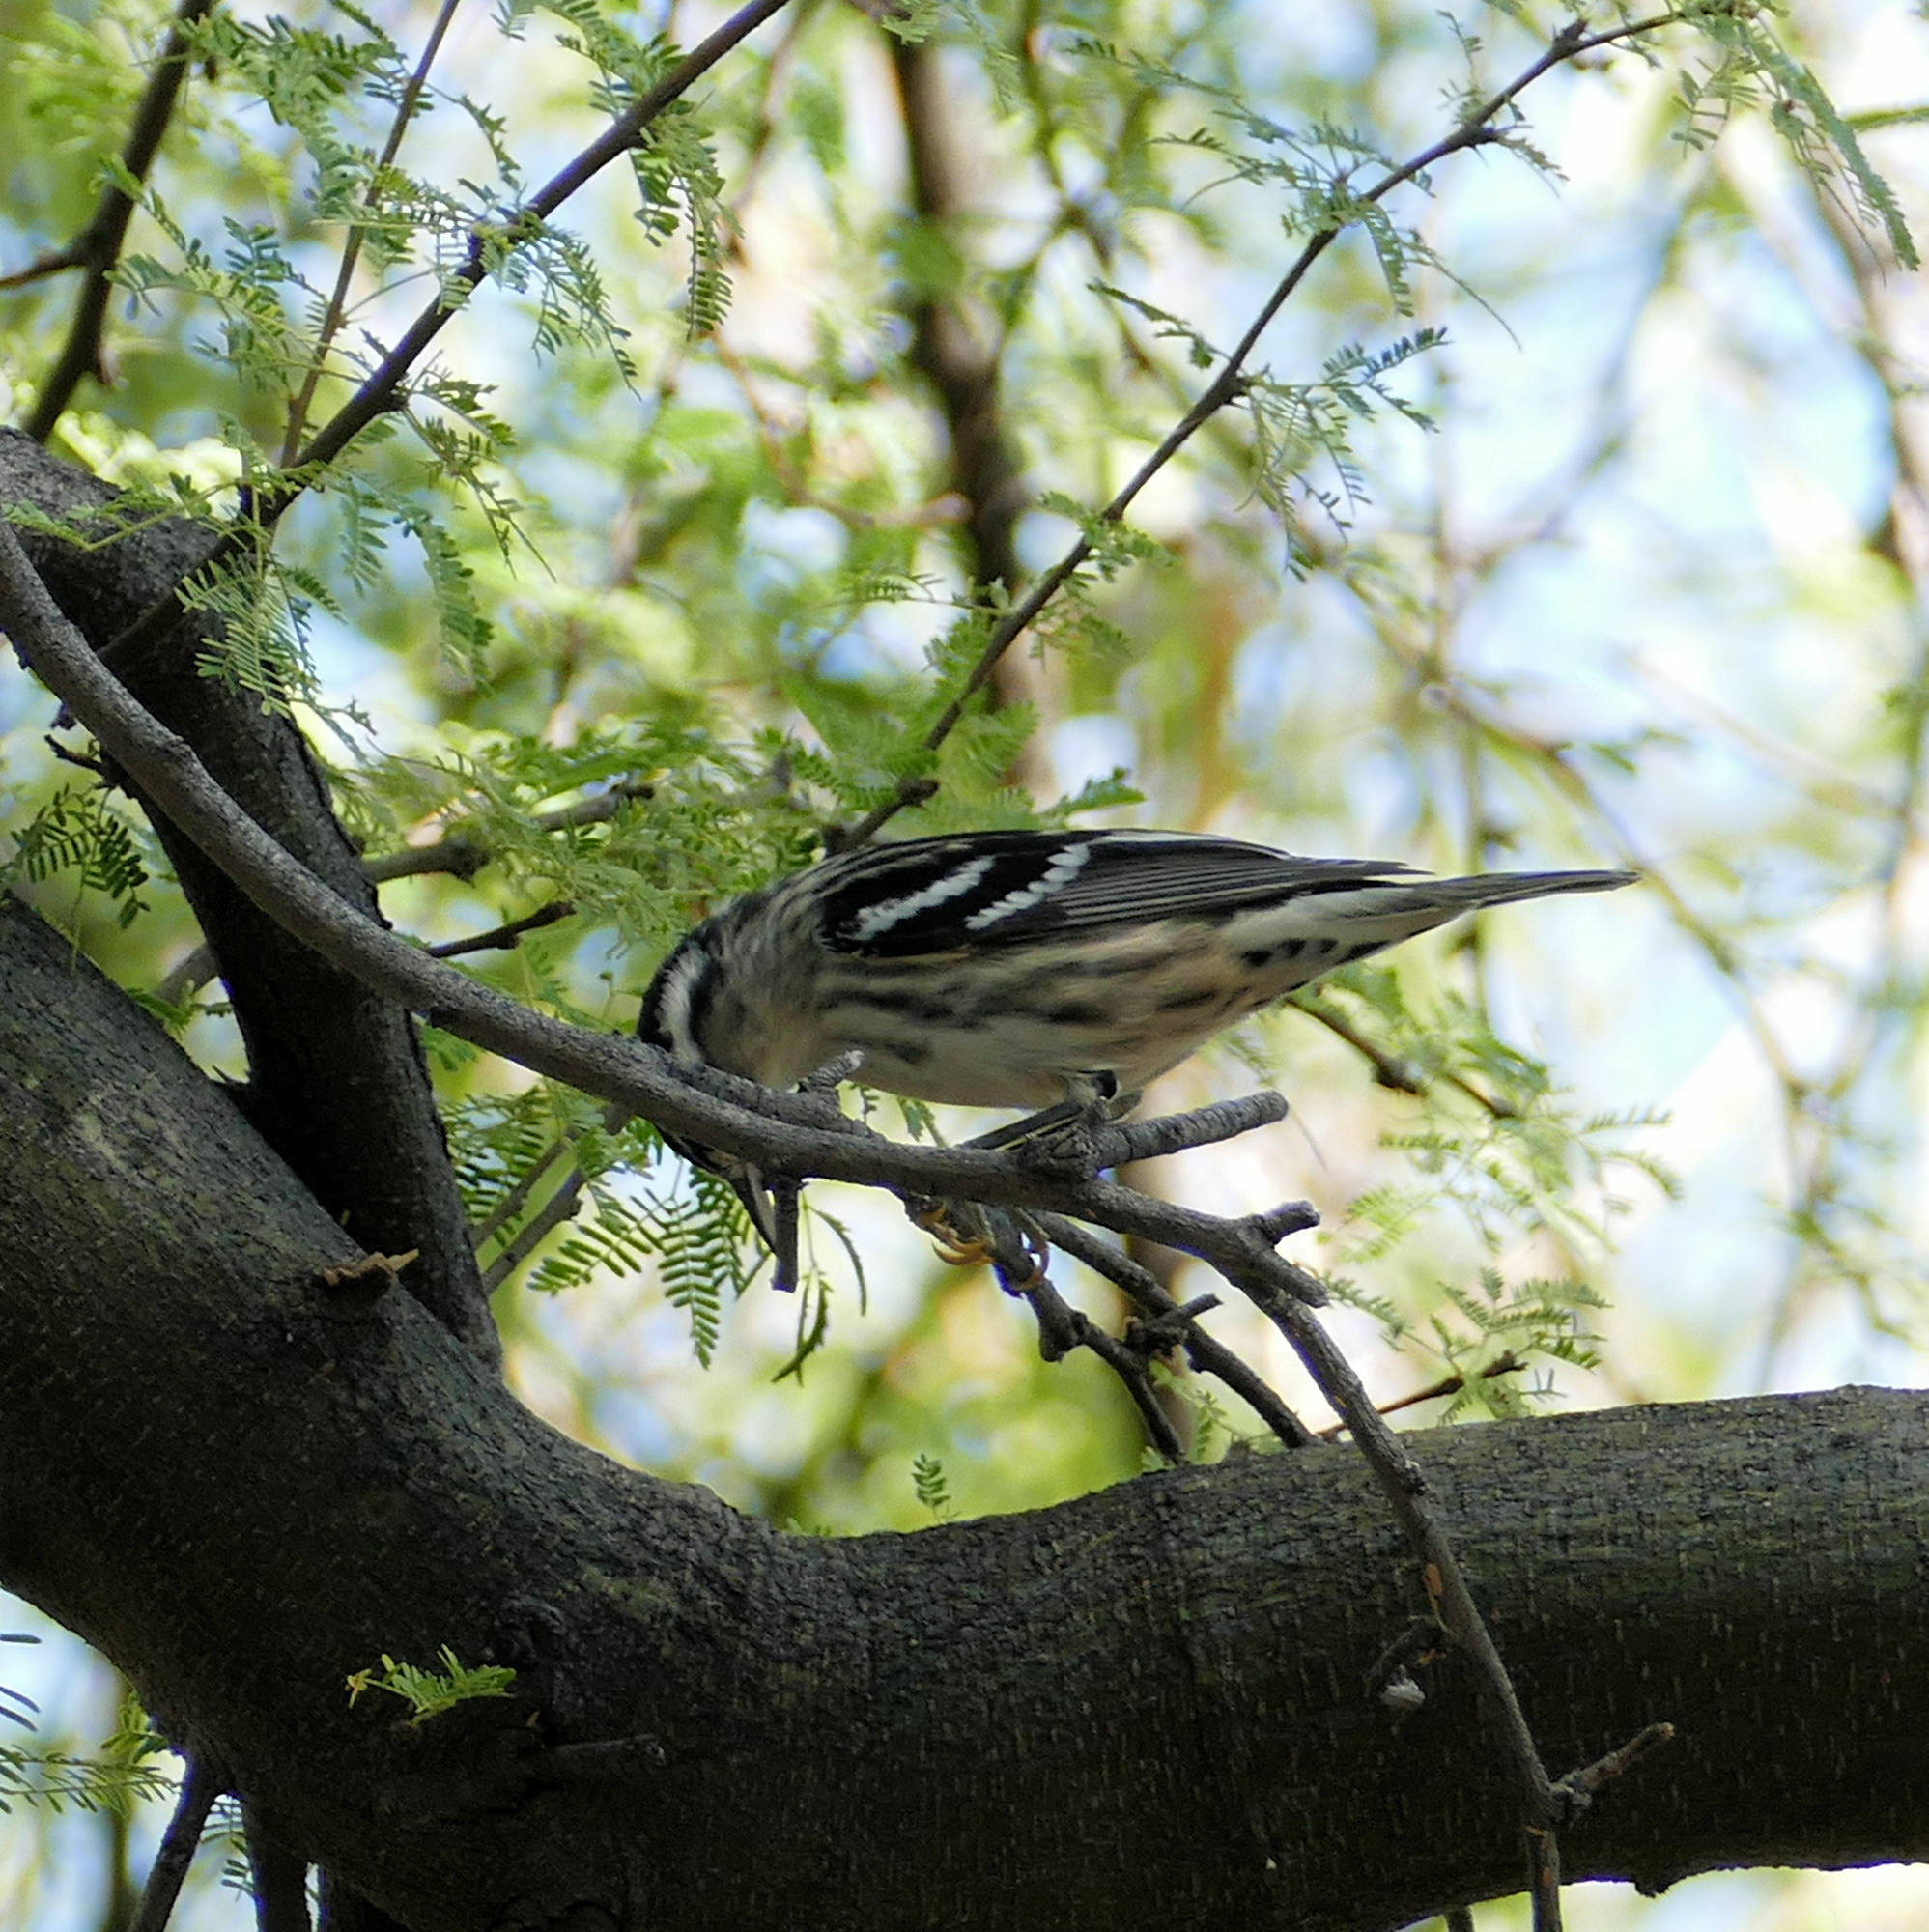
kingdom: Animalia
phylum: Chordata
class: Aves
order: Passeriformes
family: Parulidae
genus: Mniotilta
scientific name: Mniotilta varia
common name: Black-and-white warbler
